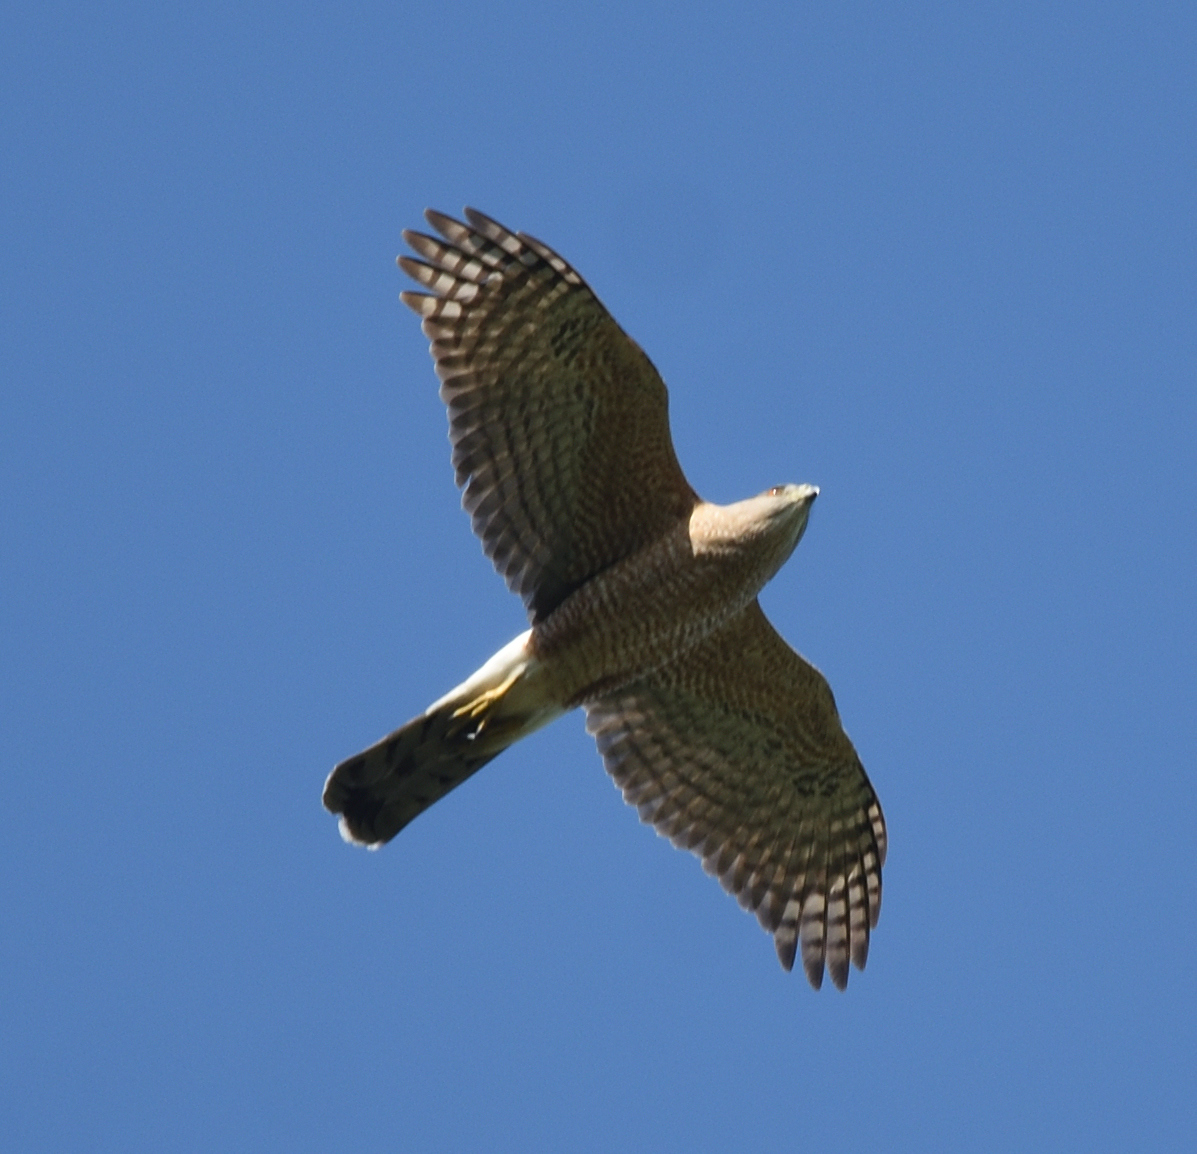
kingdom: Animalia
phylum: Chordata
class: Aves
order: Accipitriformes
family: Accipitridae
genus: Accipiter
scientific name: Accipiter cooperii
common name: Cooper's hawk
